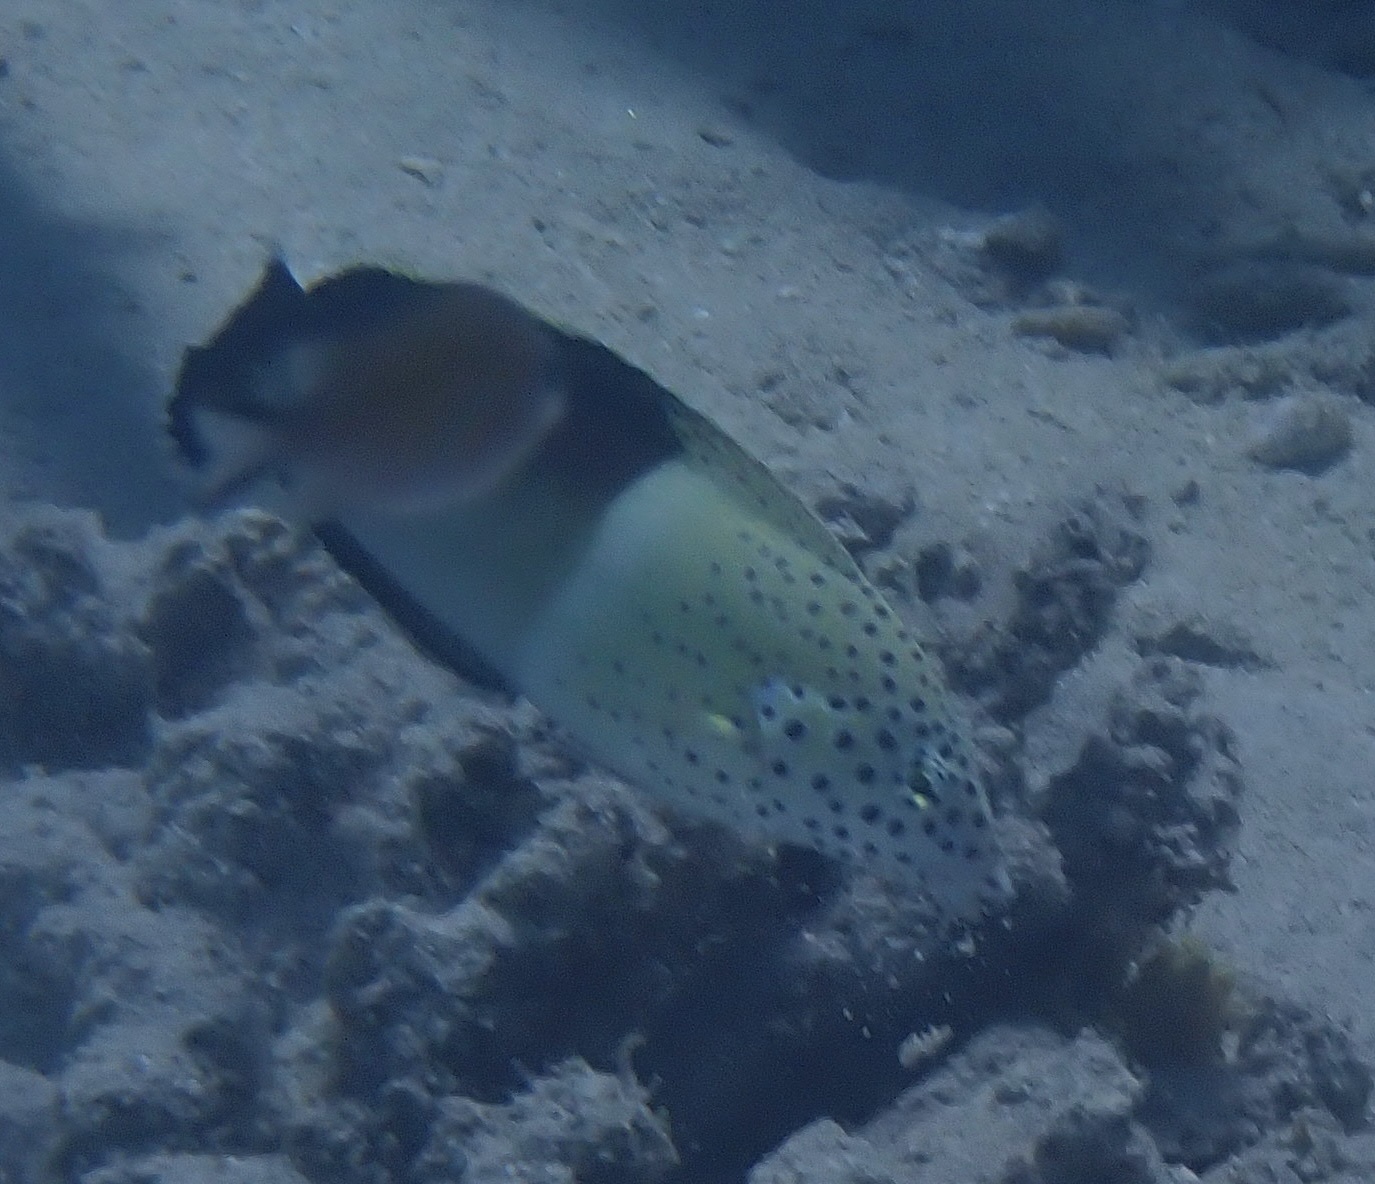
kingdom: Animalia
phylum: Chordata
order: Perciformes
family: Labridae
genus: Coris
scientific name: Coris aygula
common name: Clown coris
